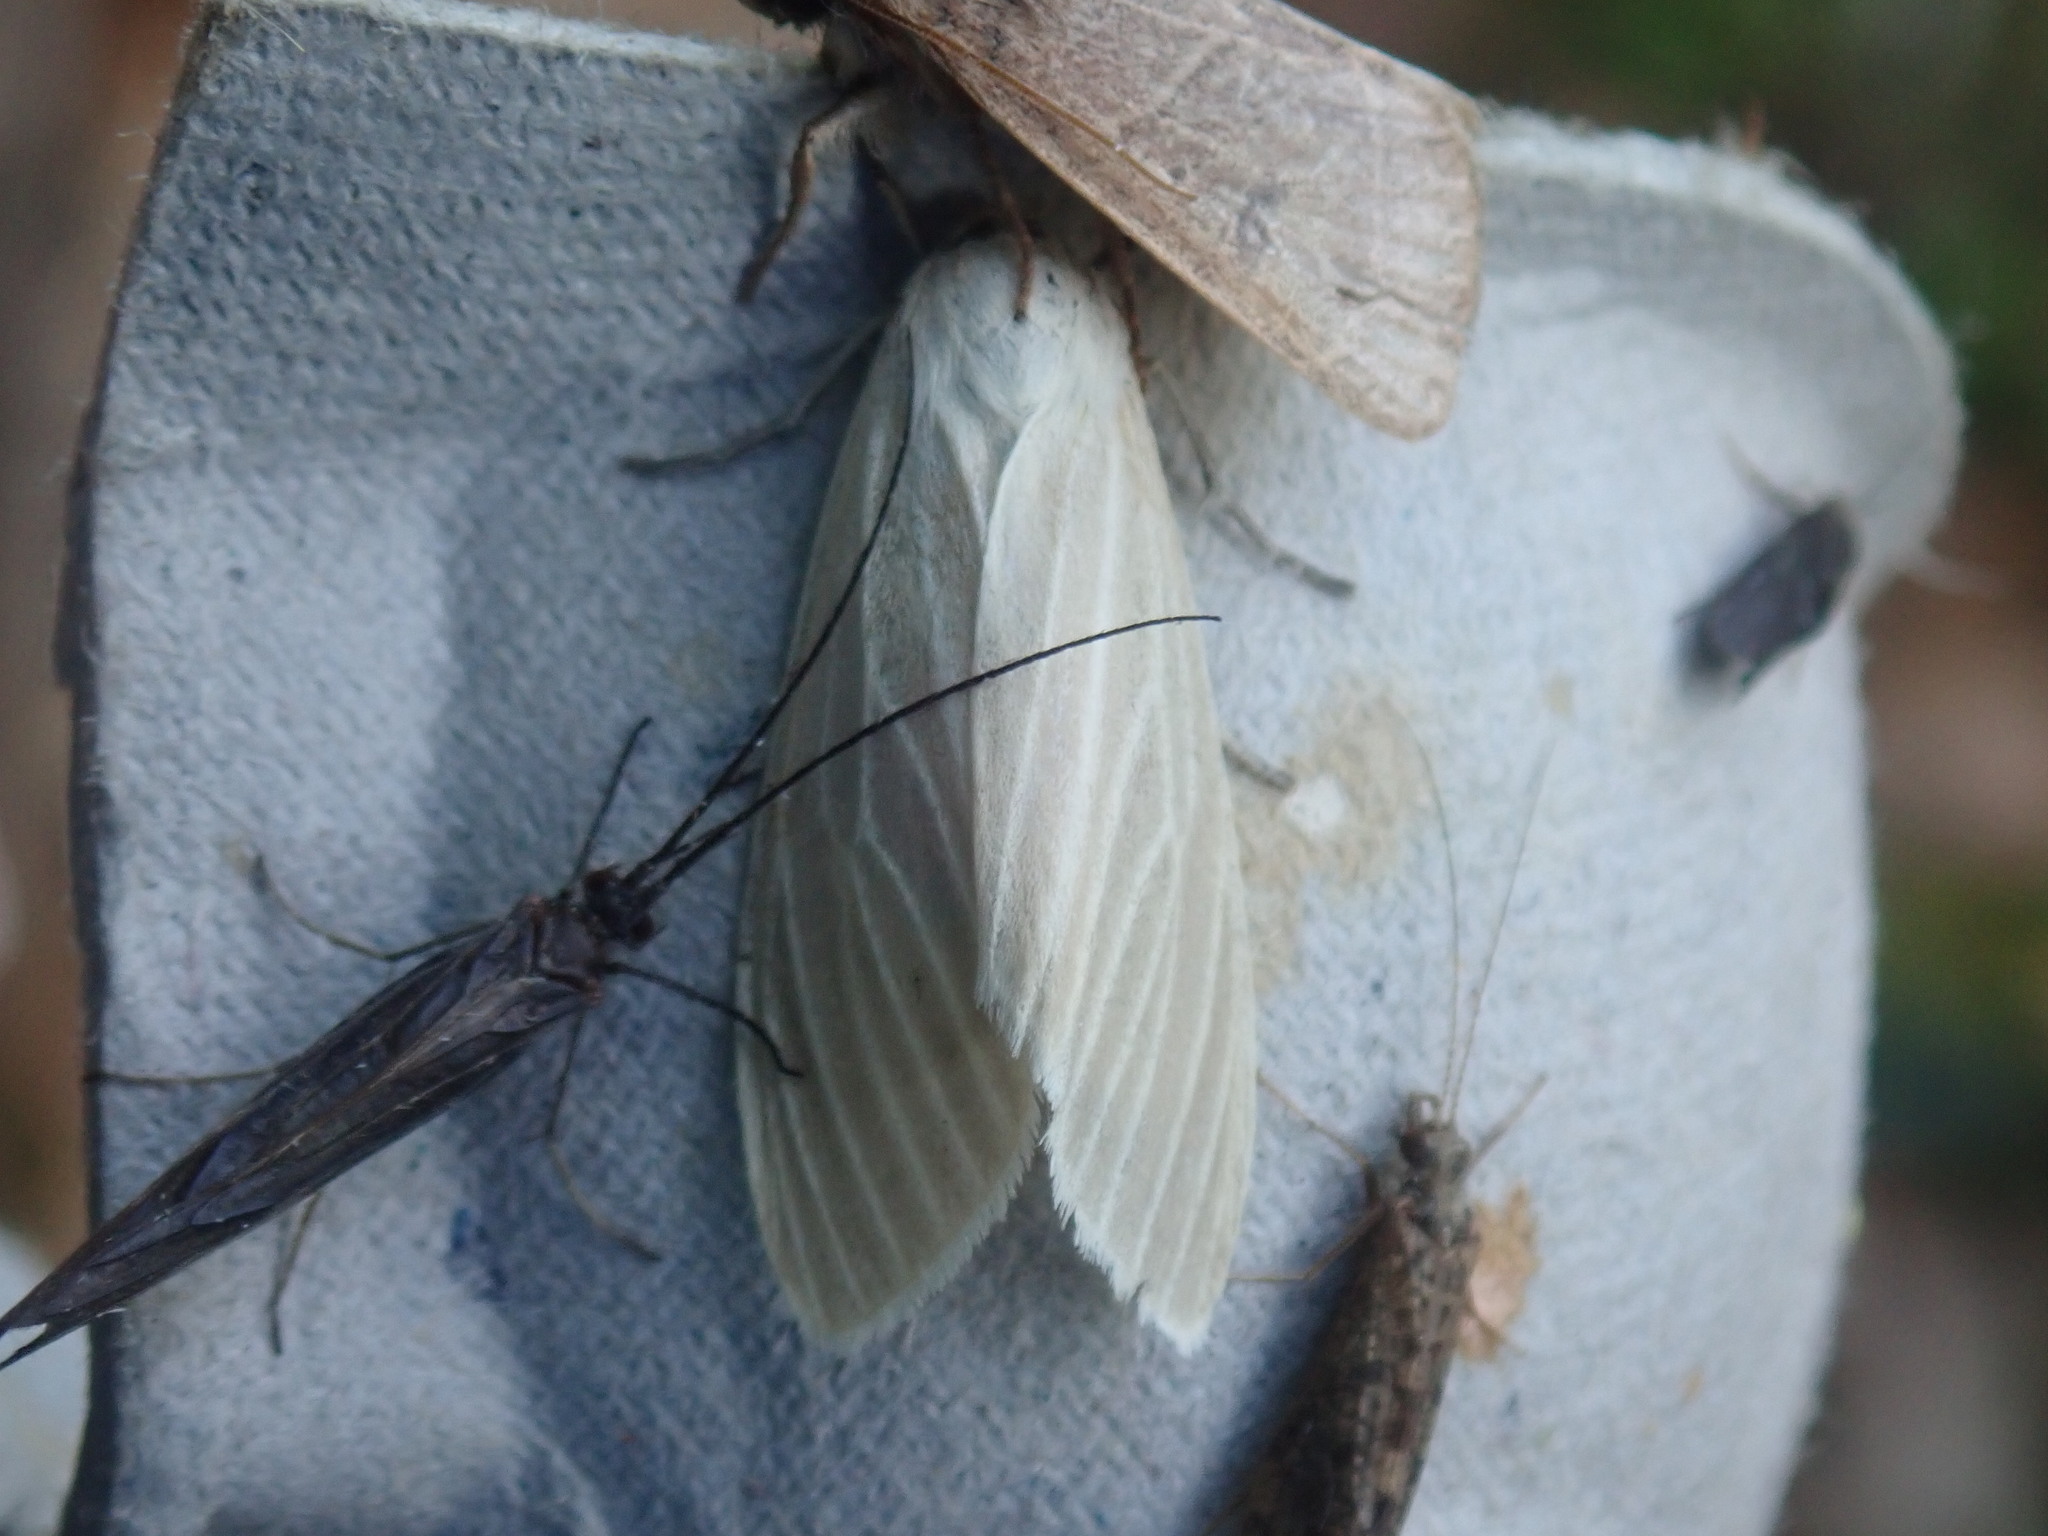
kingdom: Animalia
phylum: Arthropoda
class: Insecta
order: Lepidoptera
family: Erebidae
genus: Cycnia
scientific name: Cycnia oregonensis
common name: Oregon cycnia moth
